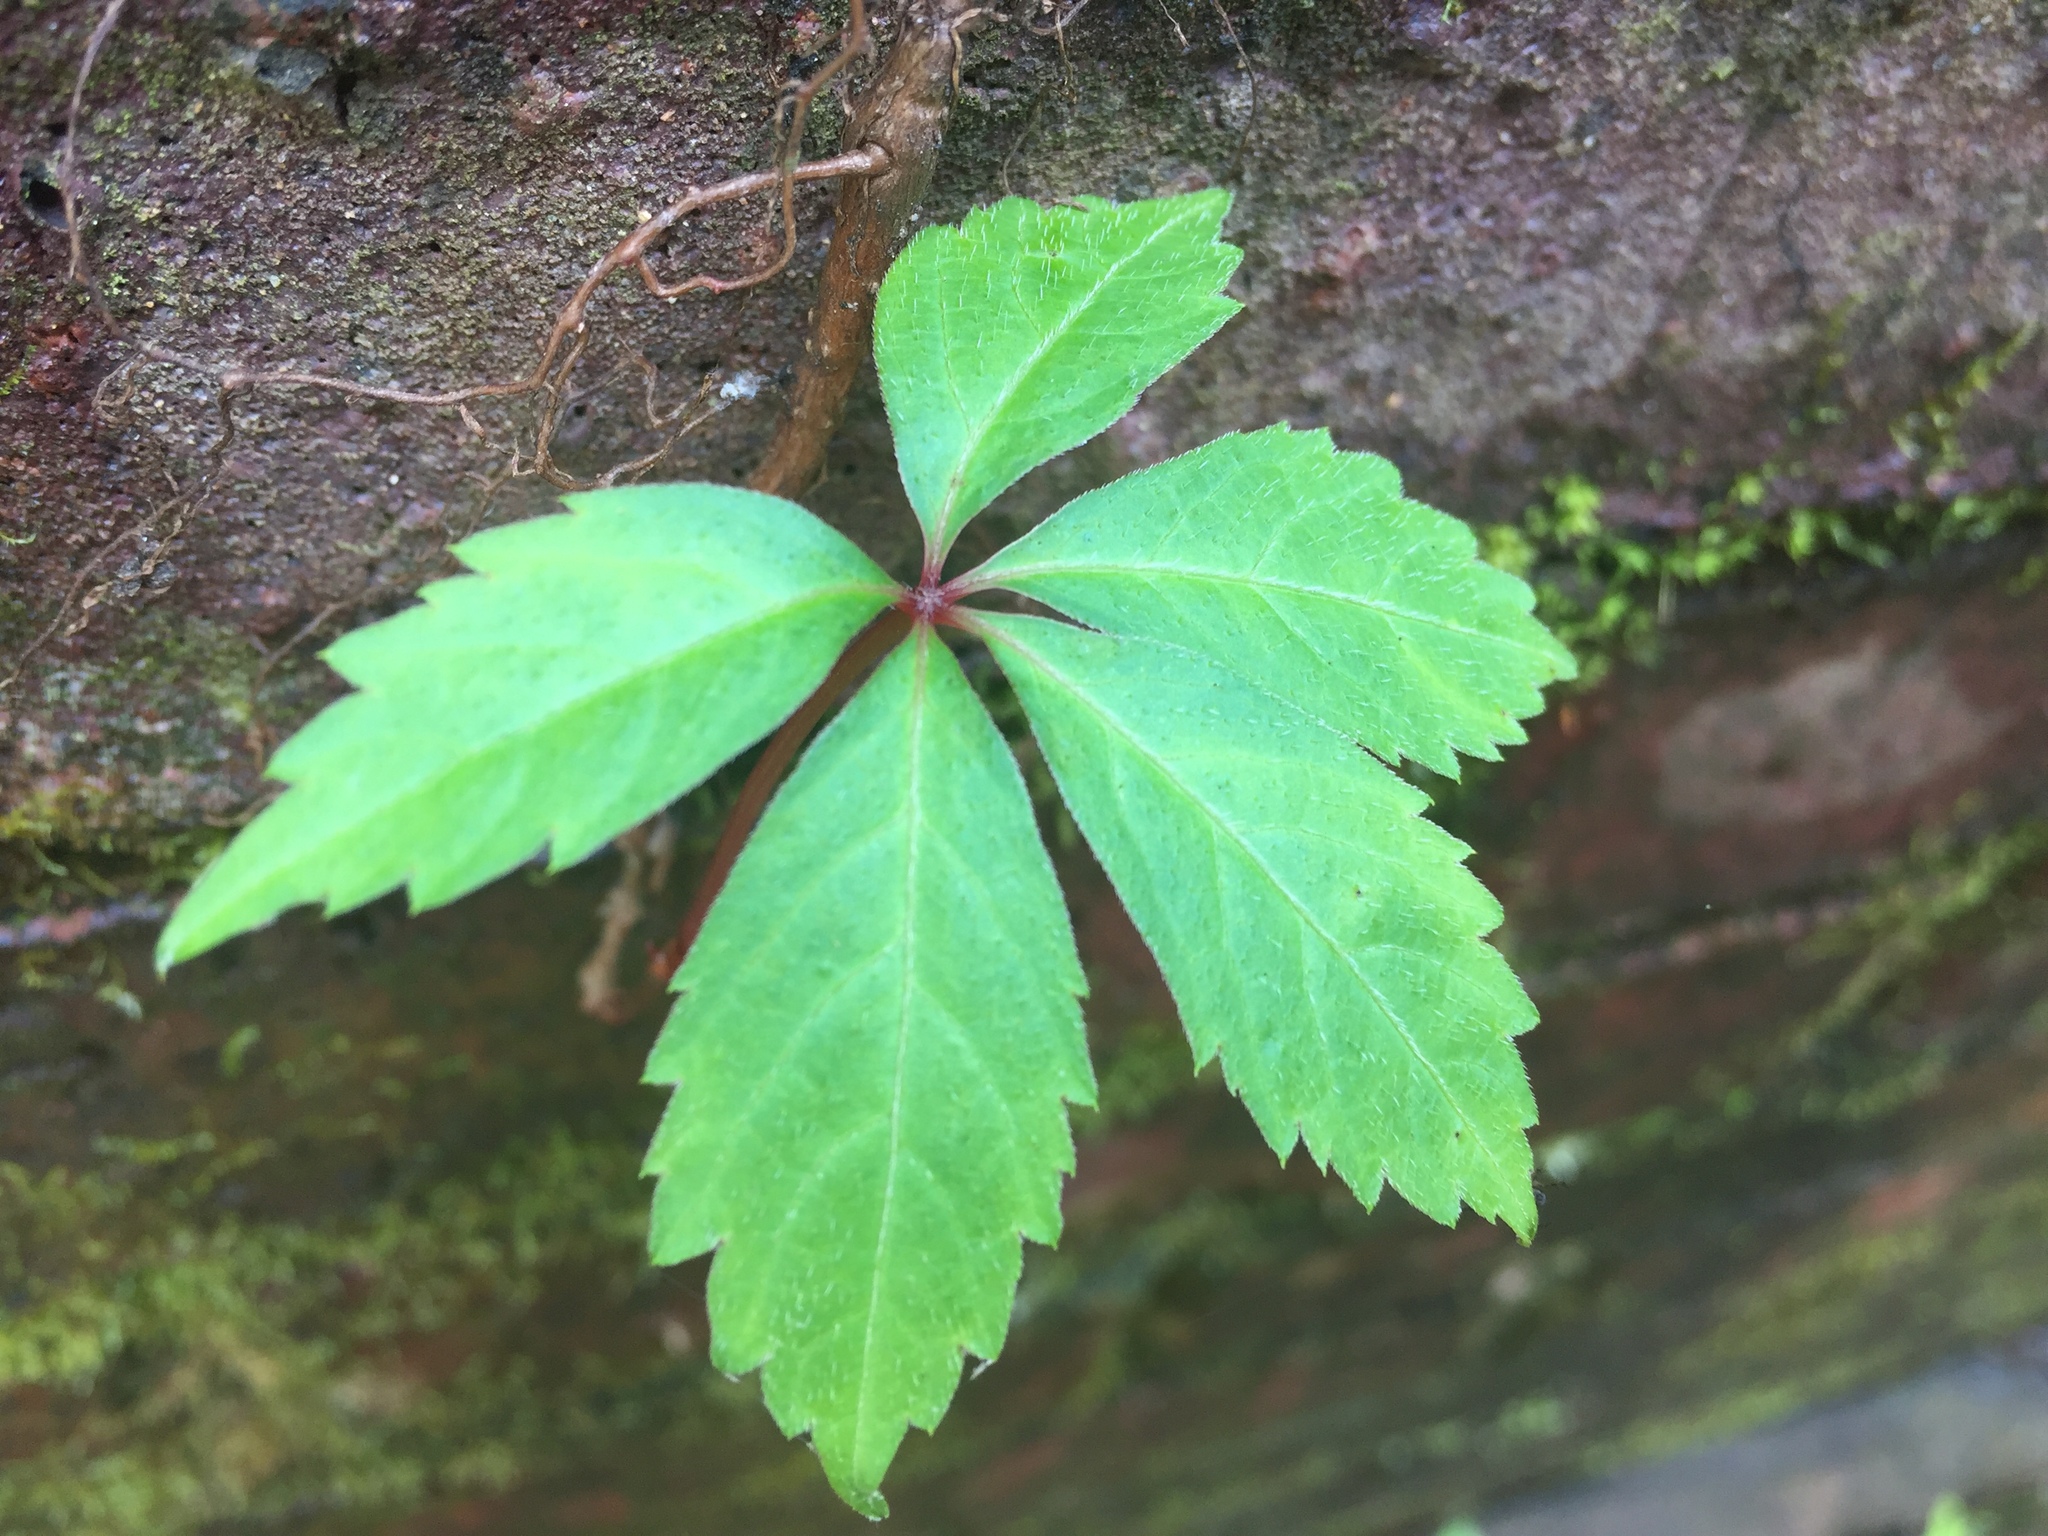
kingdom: Plantae
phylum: Tracheophyta
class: Magnoliopsida
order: Vitales
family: Vitaceae
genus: Parthenocissus
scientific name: Parthenocissus quinquefolia
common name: Virginia-creeper
